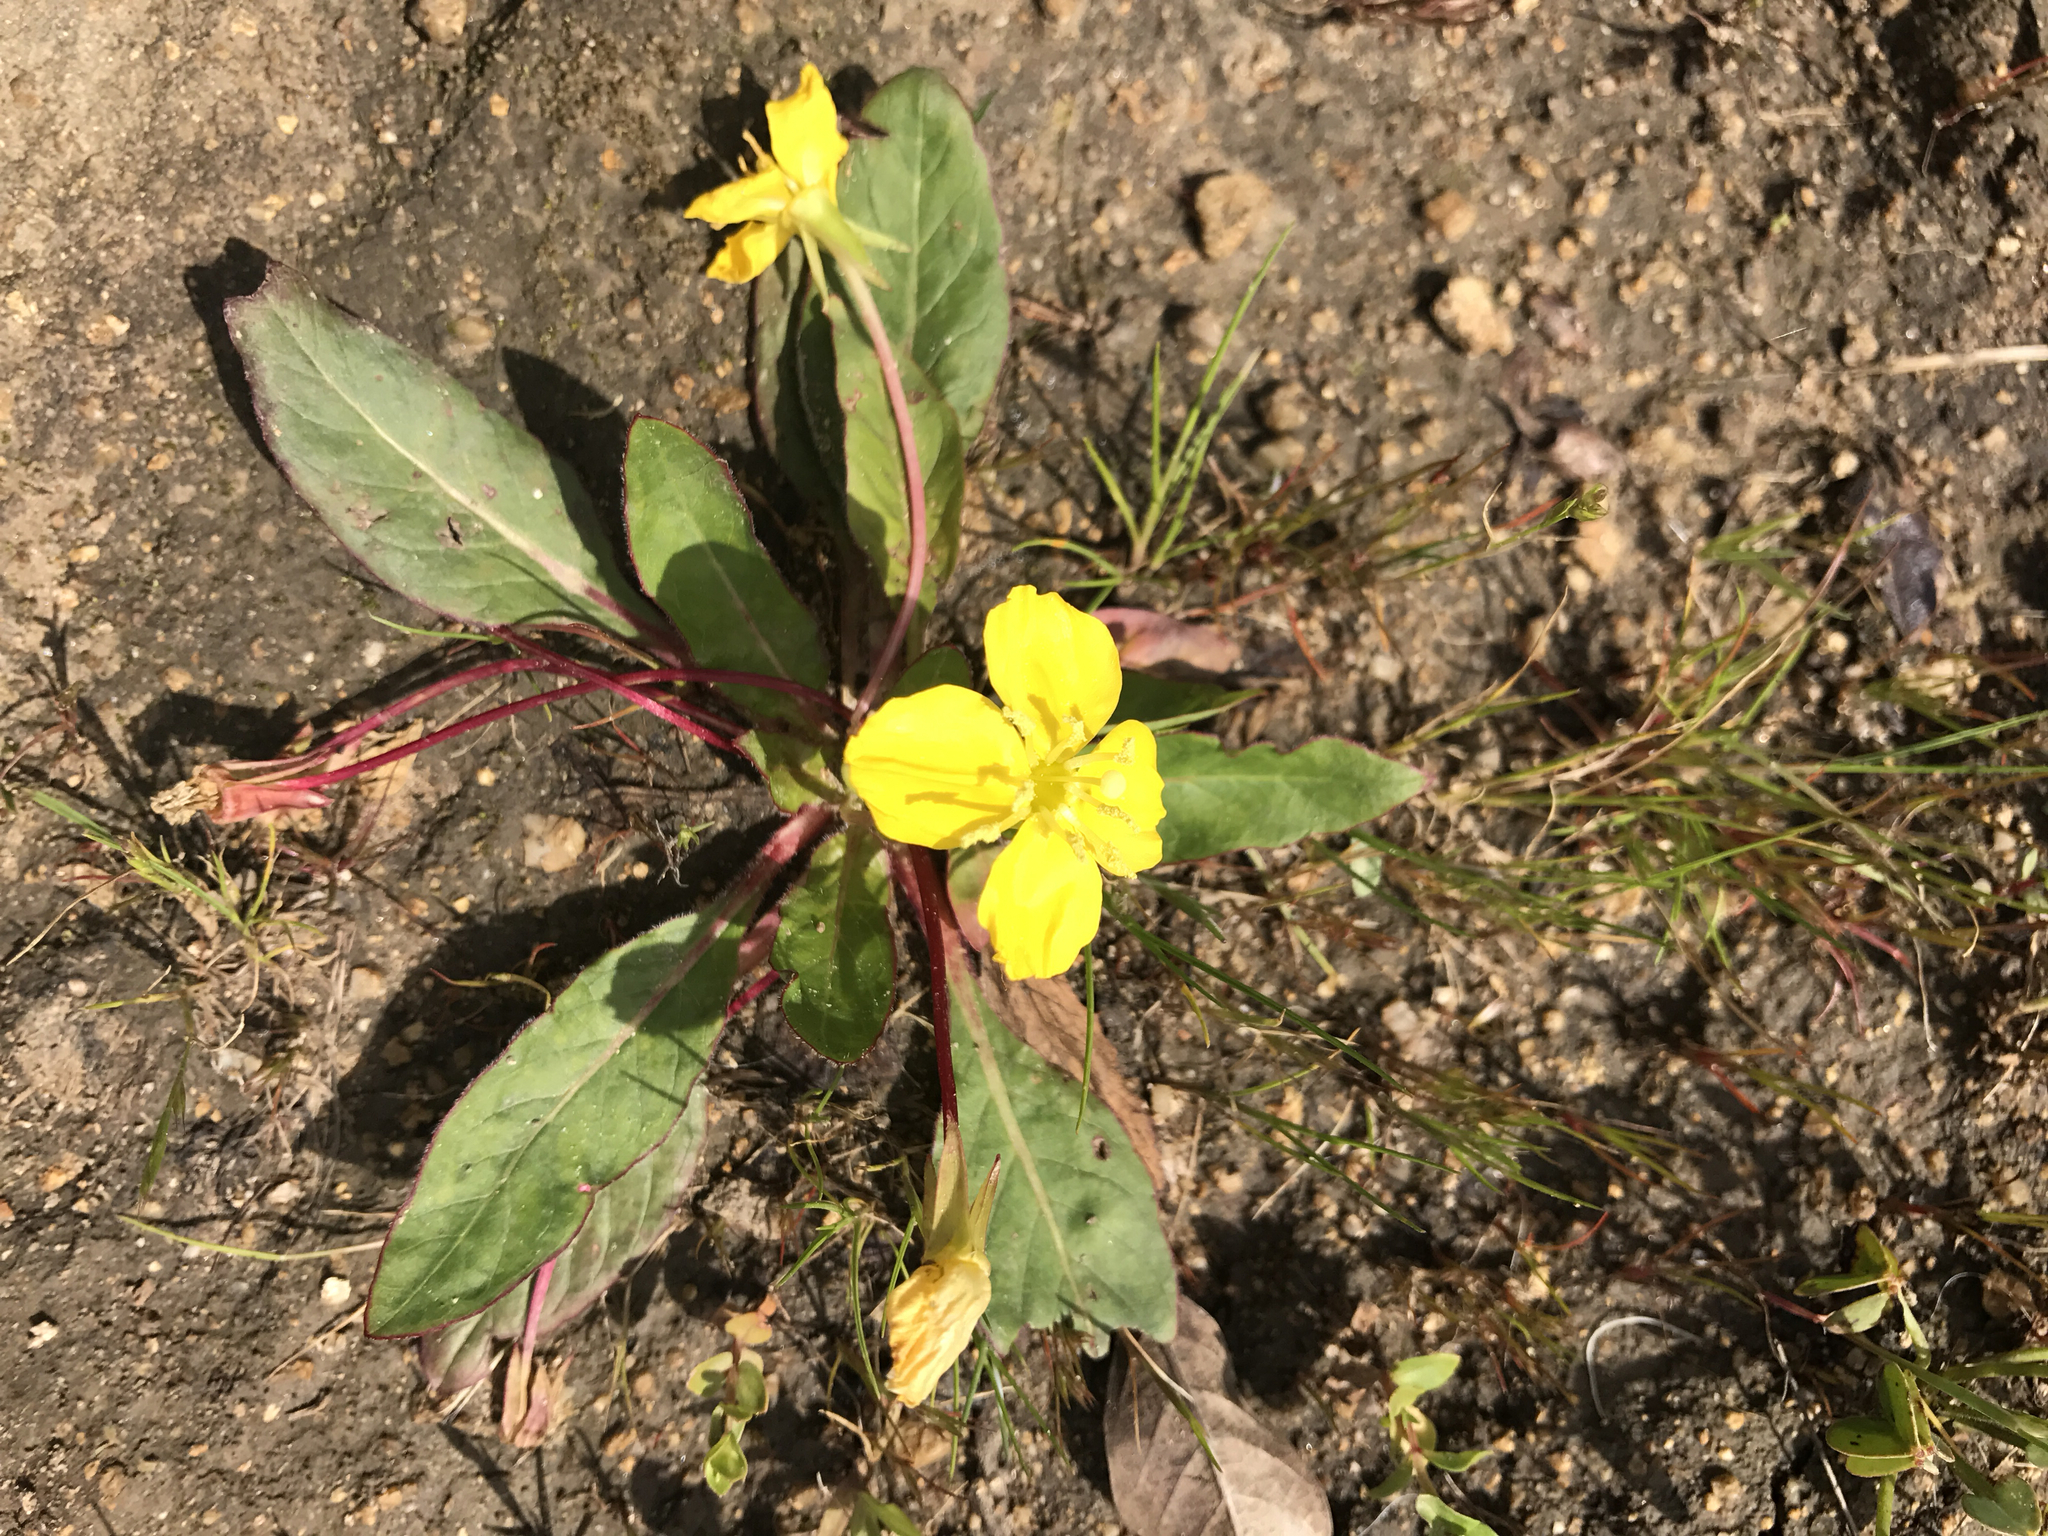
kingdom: Plantae
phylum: Tracheophyta
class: Magnoliopsida
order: Lamiales
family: Scrophulariaceae
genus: Scrophularia
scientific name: Scrophularia californica
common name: California figwort
